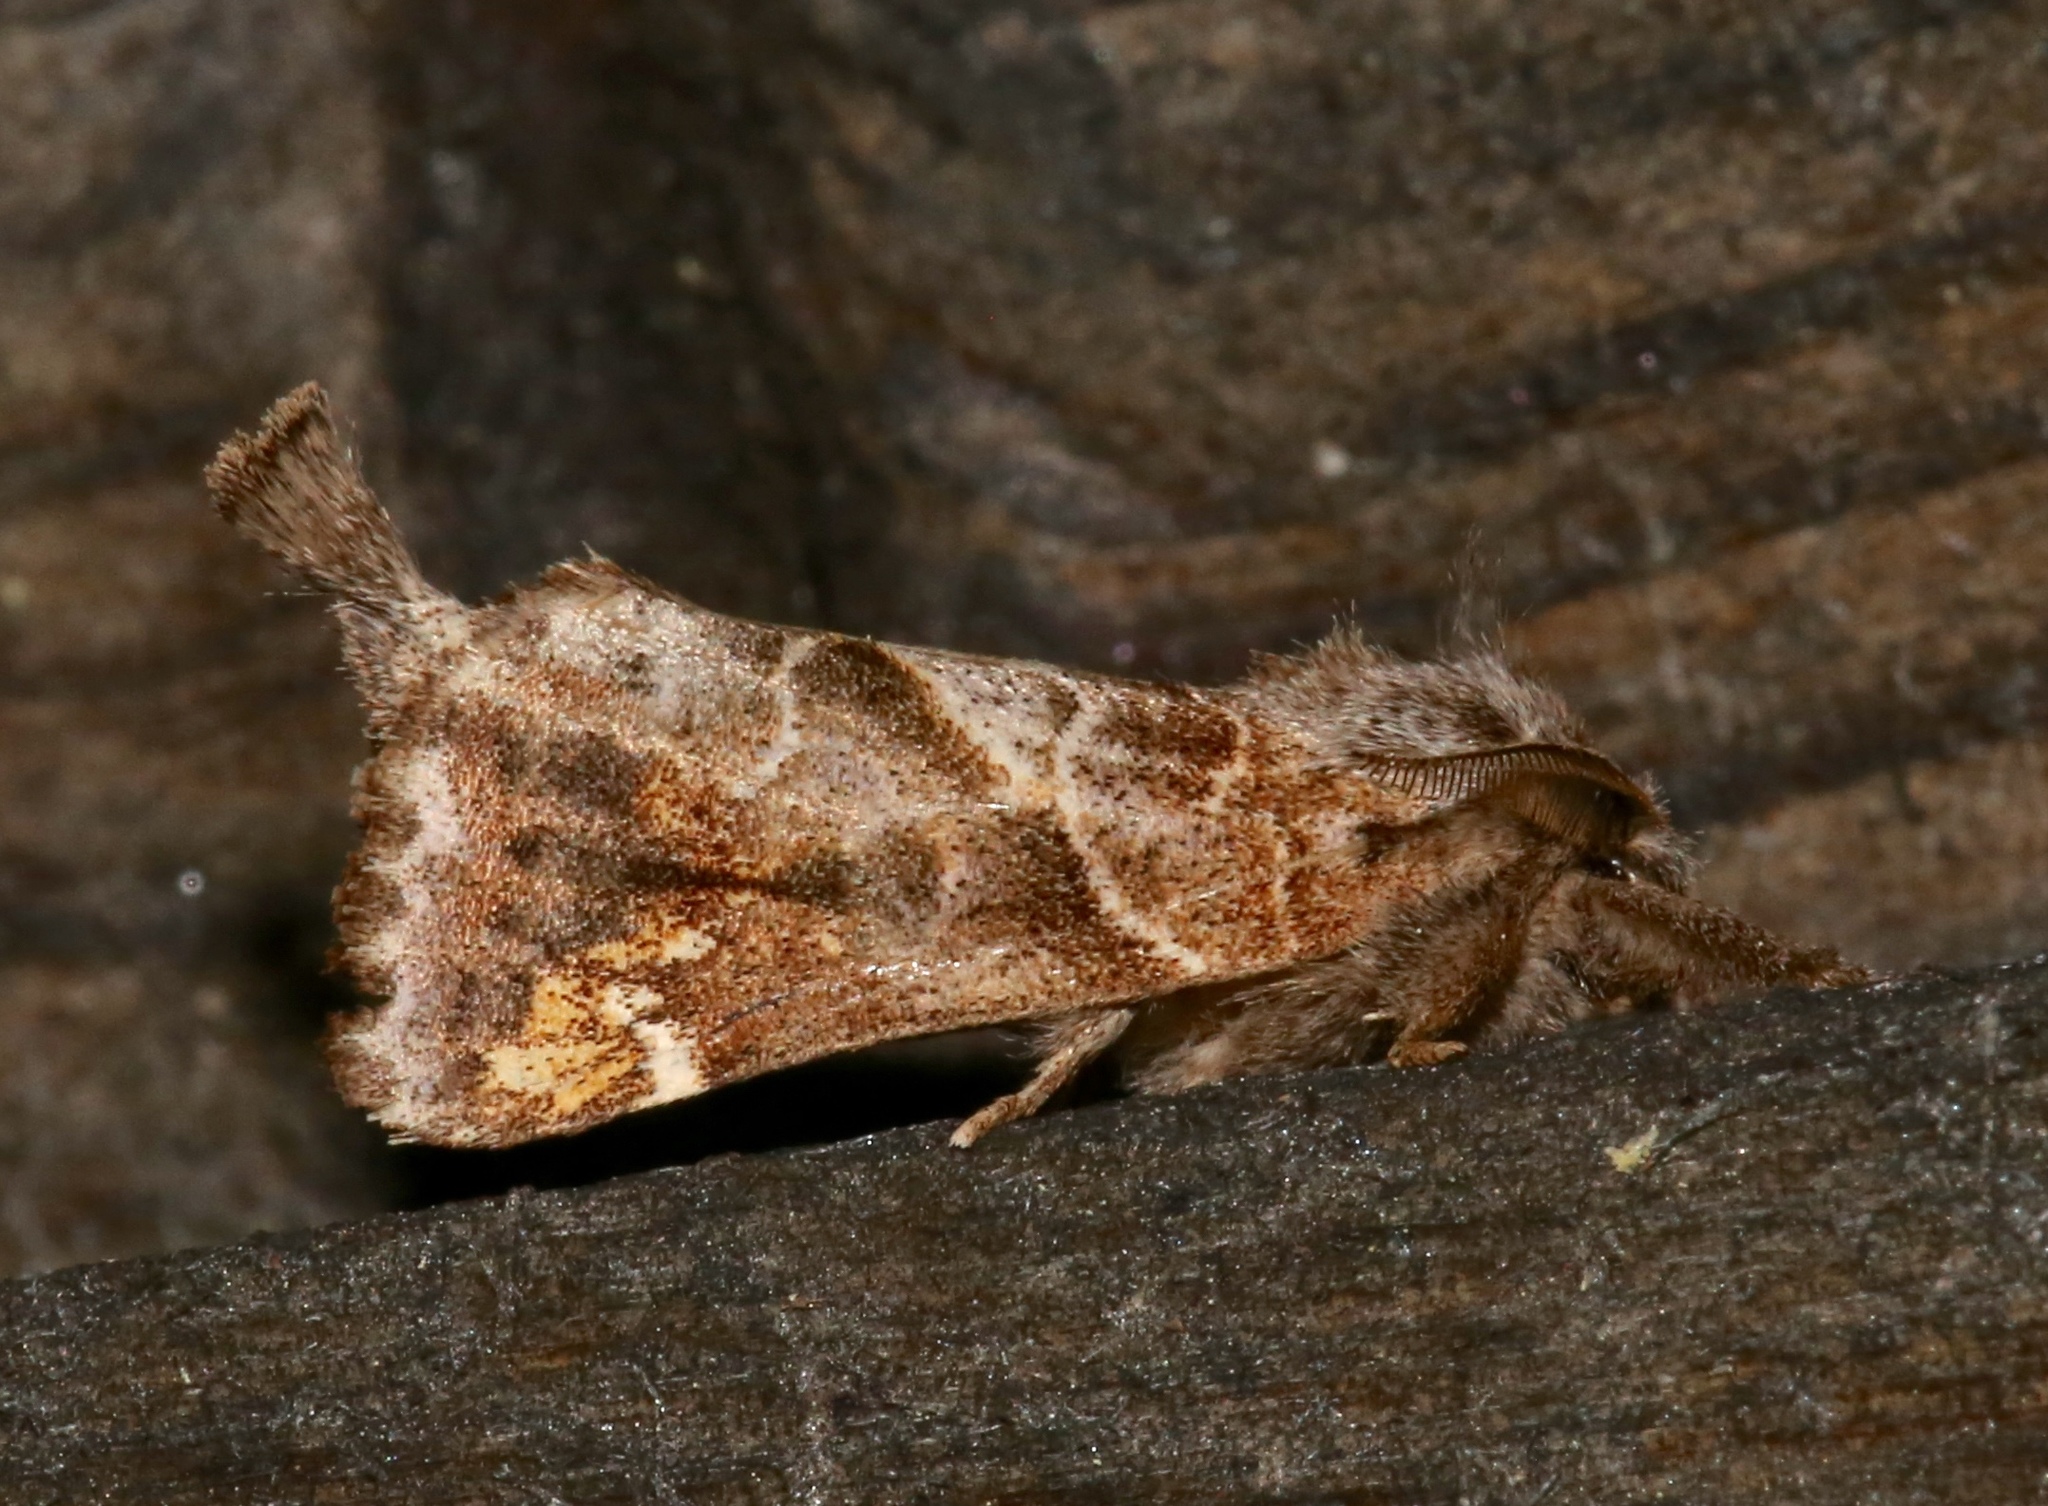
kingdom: Animalia
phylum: Arthropoda
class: Insecta
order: Lepidoptera
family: Notodontidae
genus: Clostera
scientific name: Clostera strigosa
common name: Striped chocolate-tip moth
